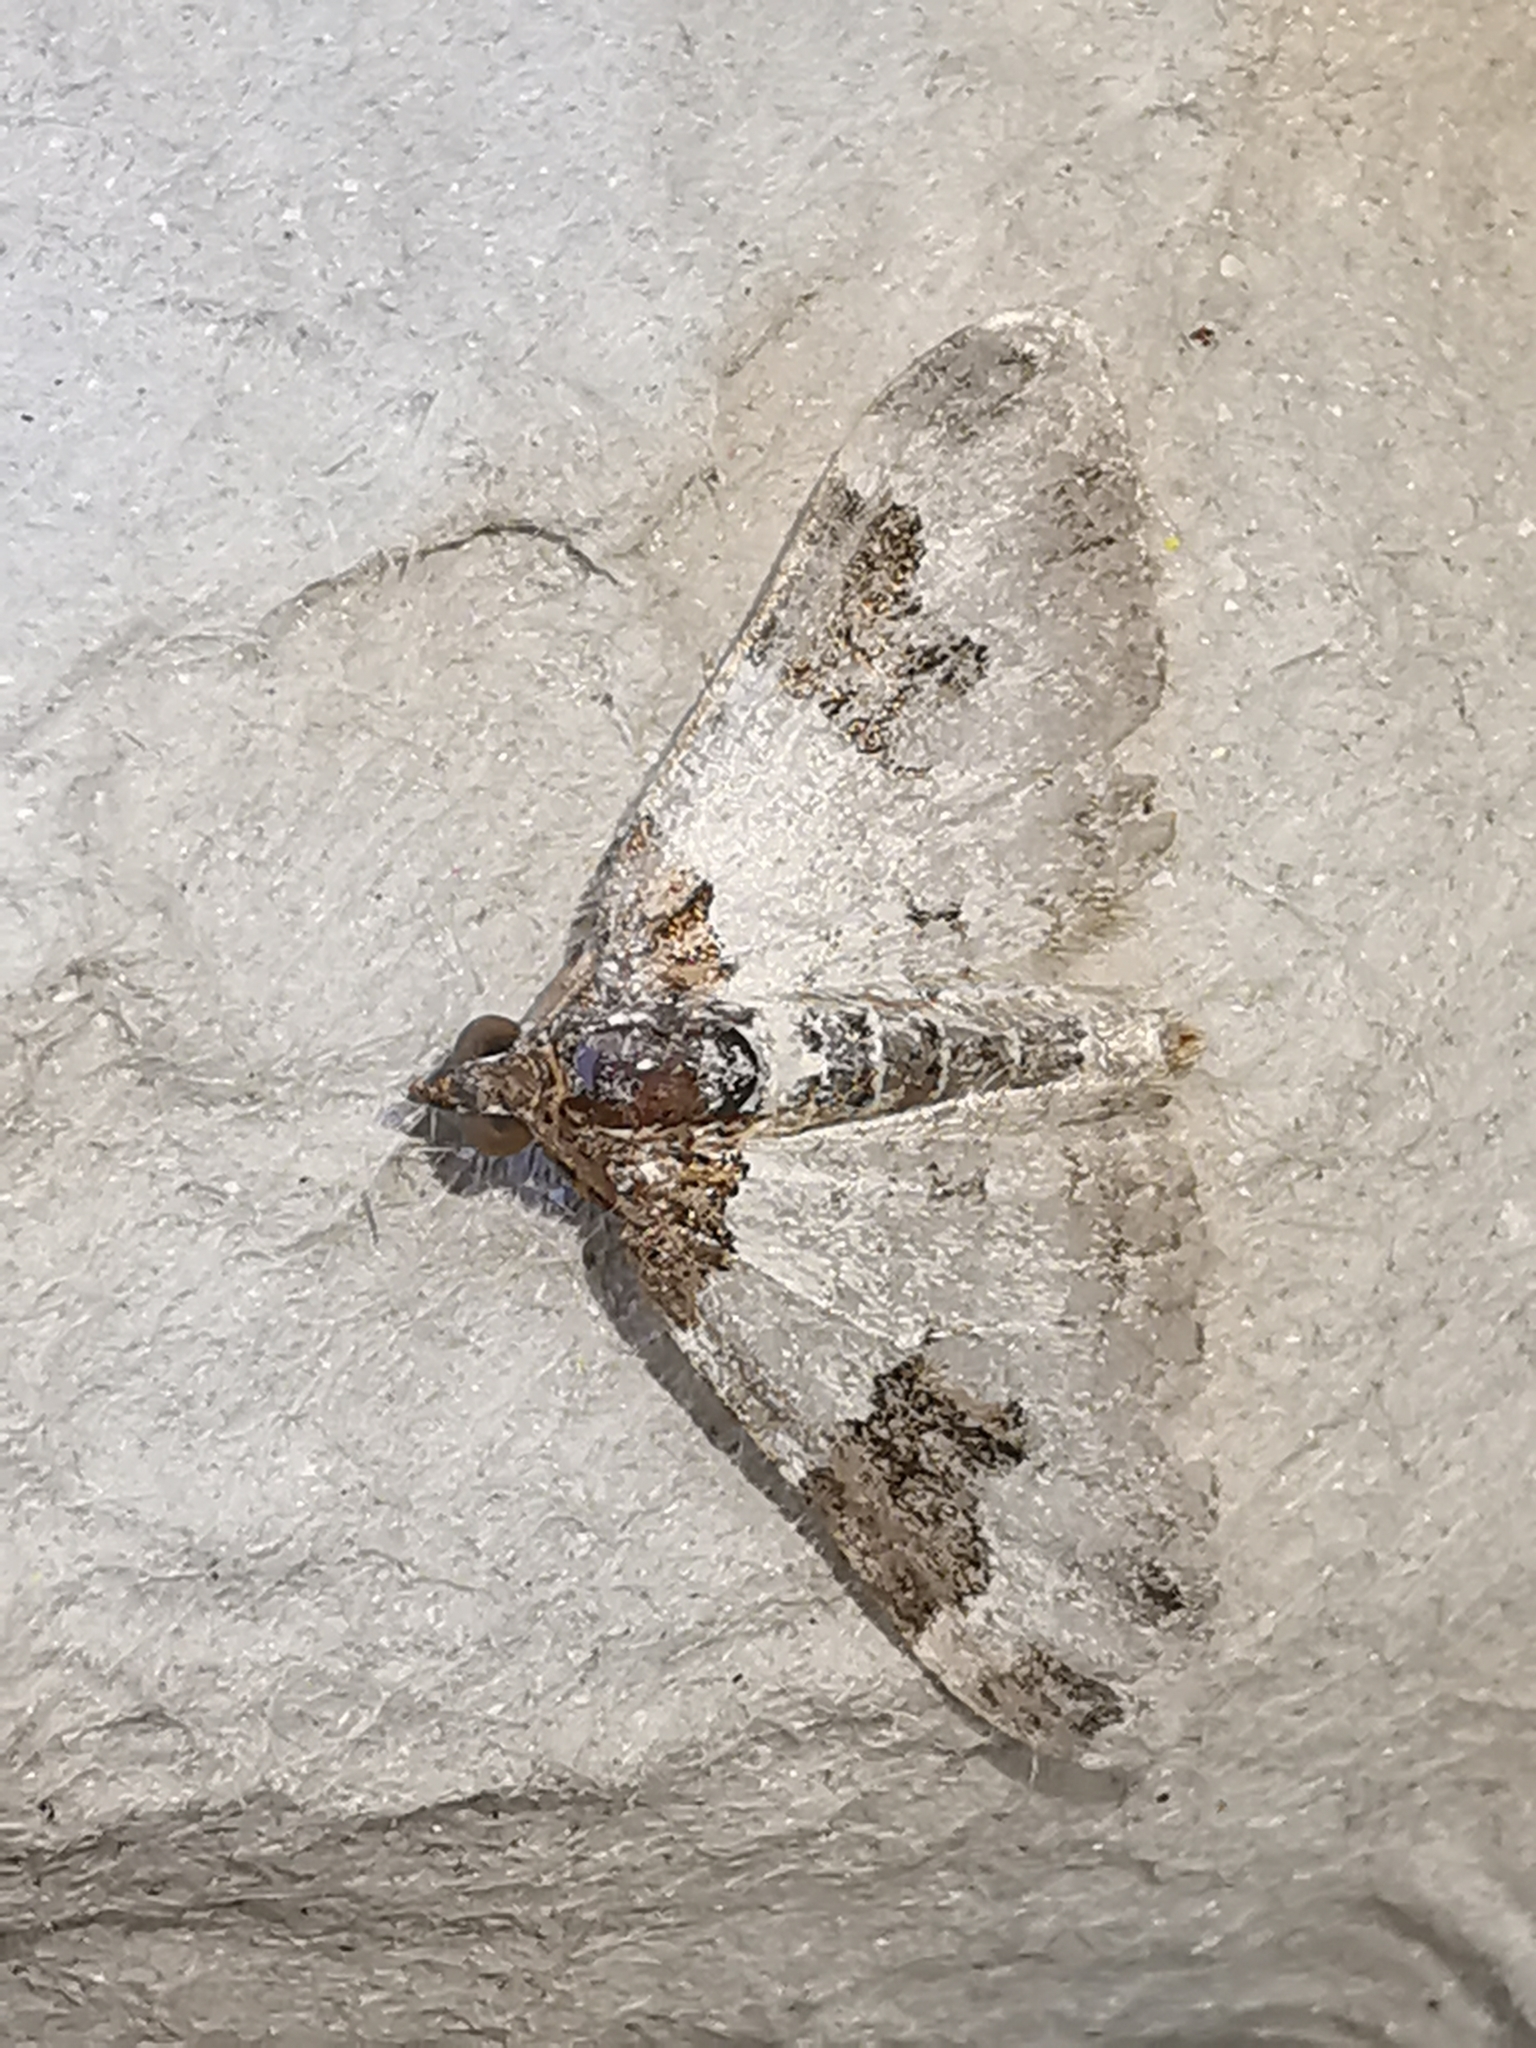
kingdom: Animalia
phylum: Arthropoda
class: Insecta
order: Lepidoptera
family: Geometridae
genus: Xanthorhoe
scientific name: Xanthorhoe fluctuata
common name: Garden carpet
